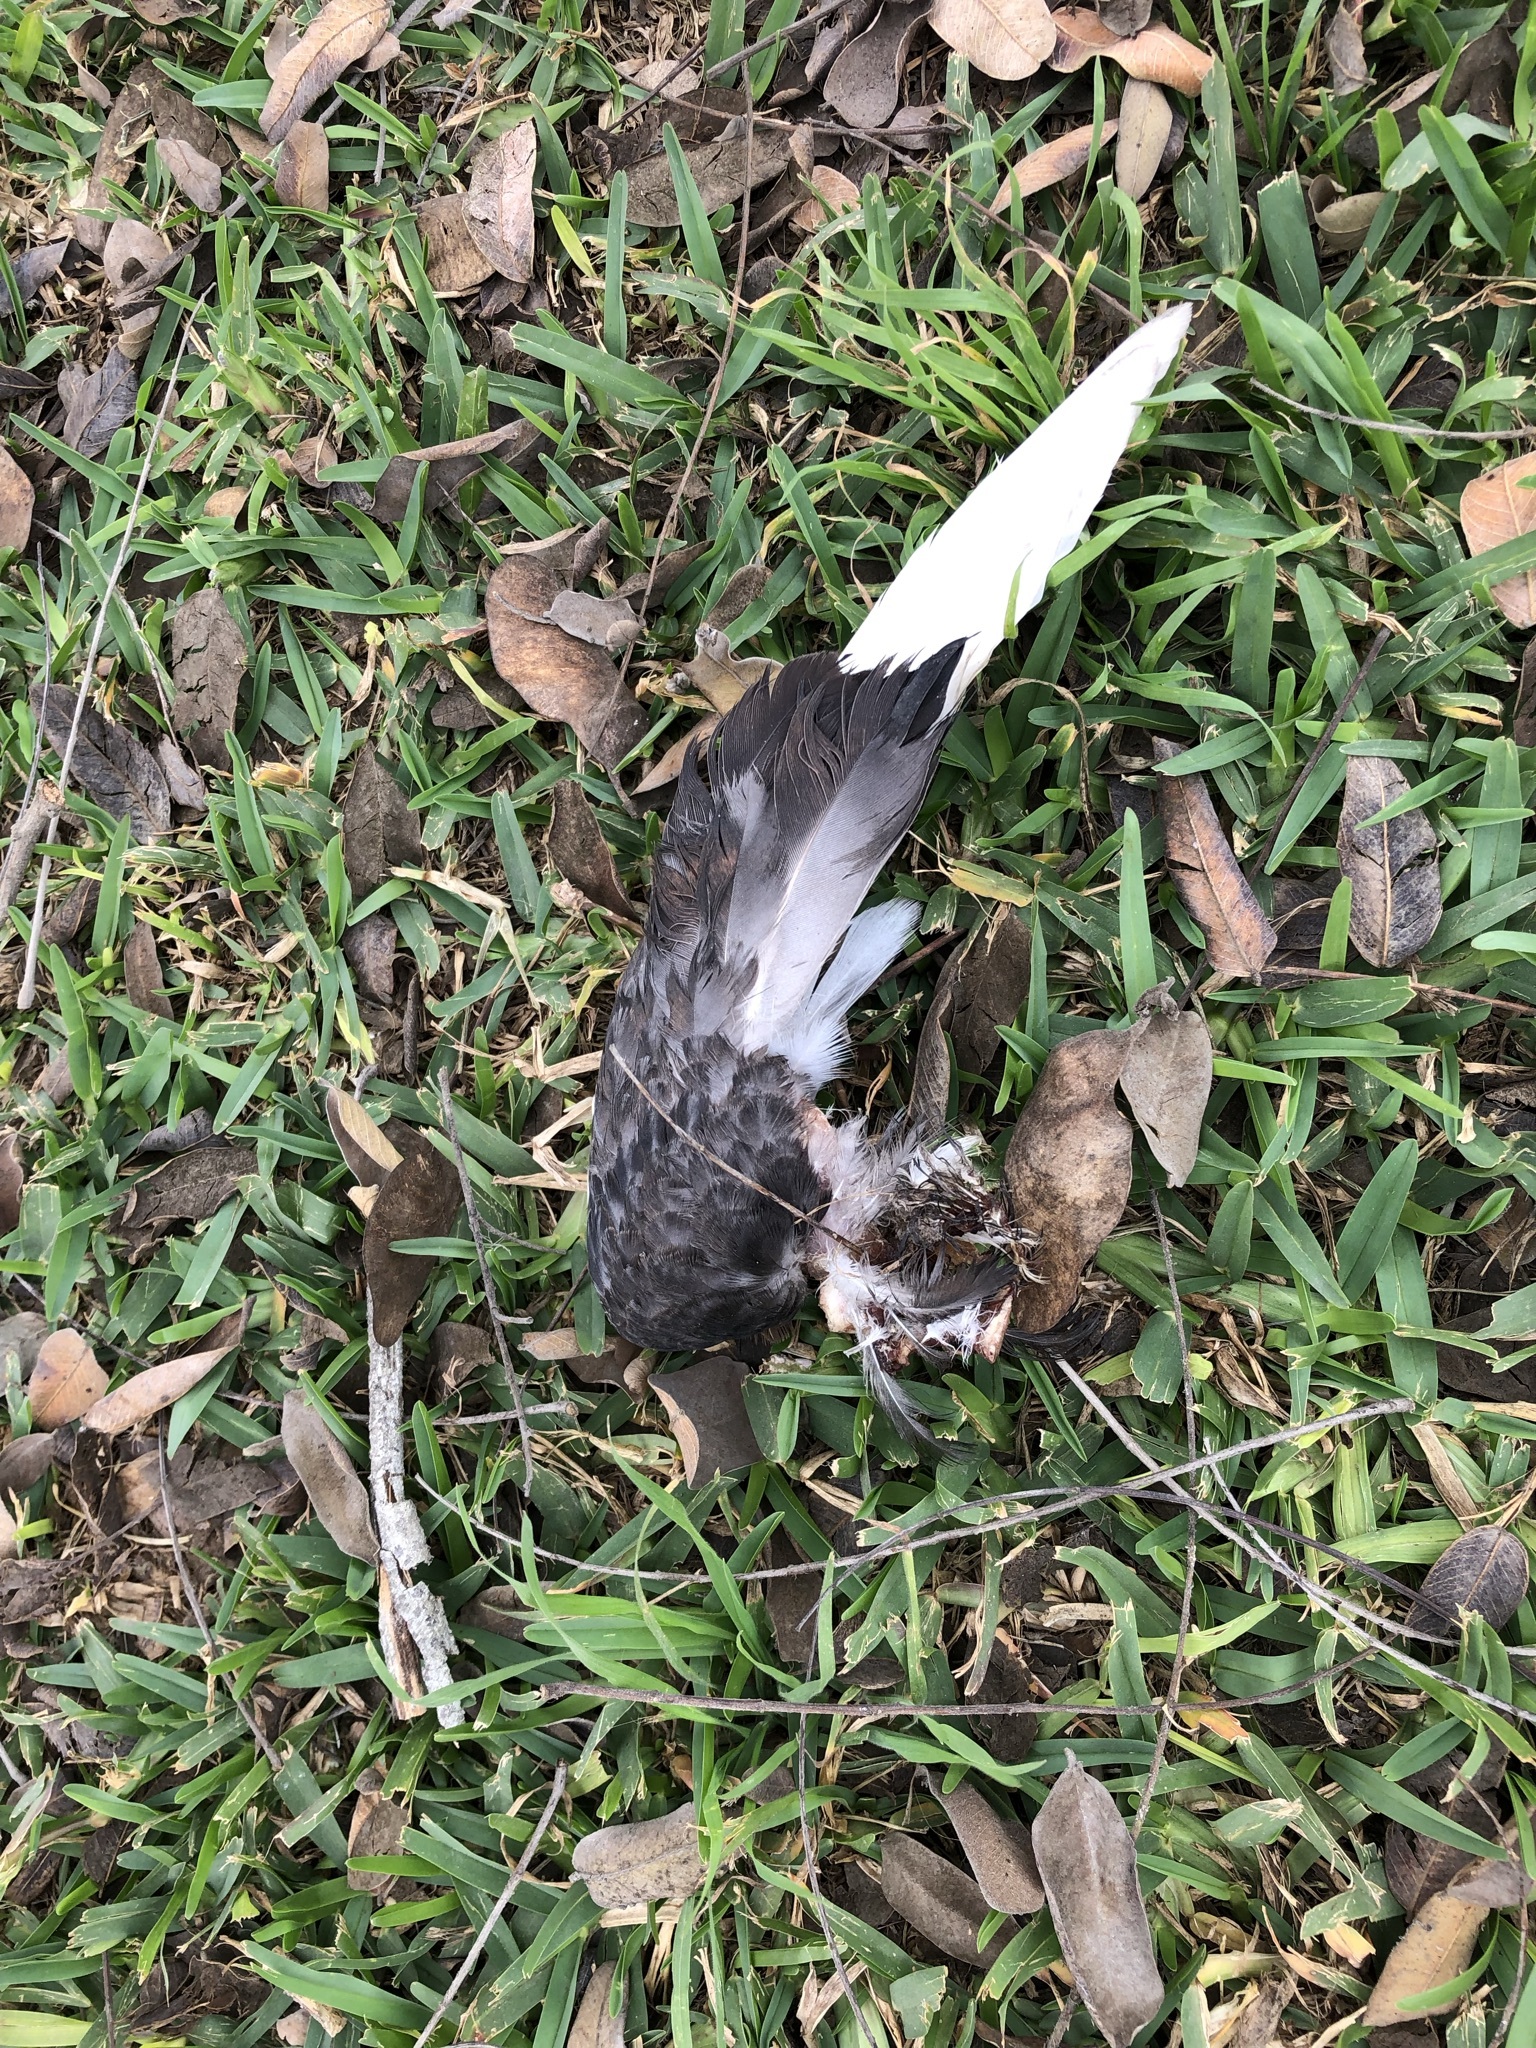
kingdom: Animalia
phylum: Chordata
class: Aves
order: Columbiformes
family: Columbidae
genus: Columba
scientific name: Columba livia
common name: Rock pigeon
